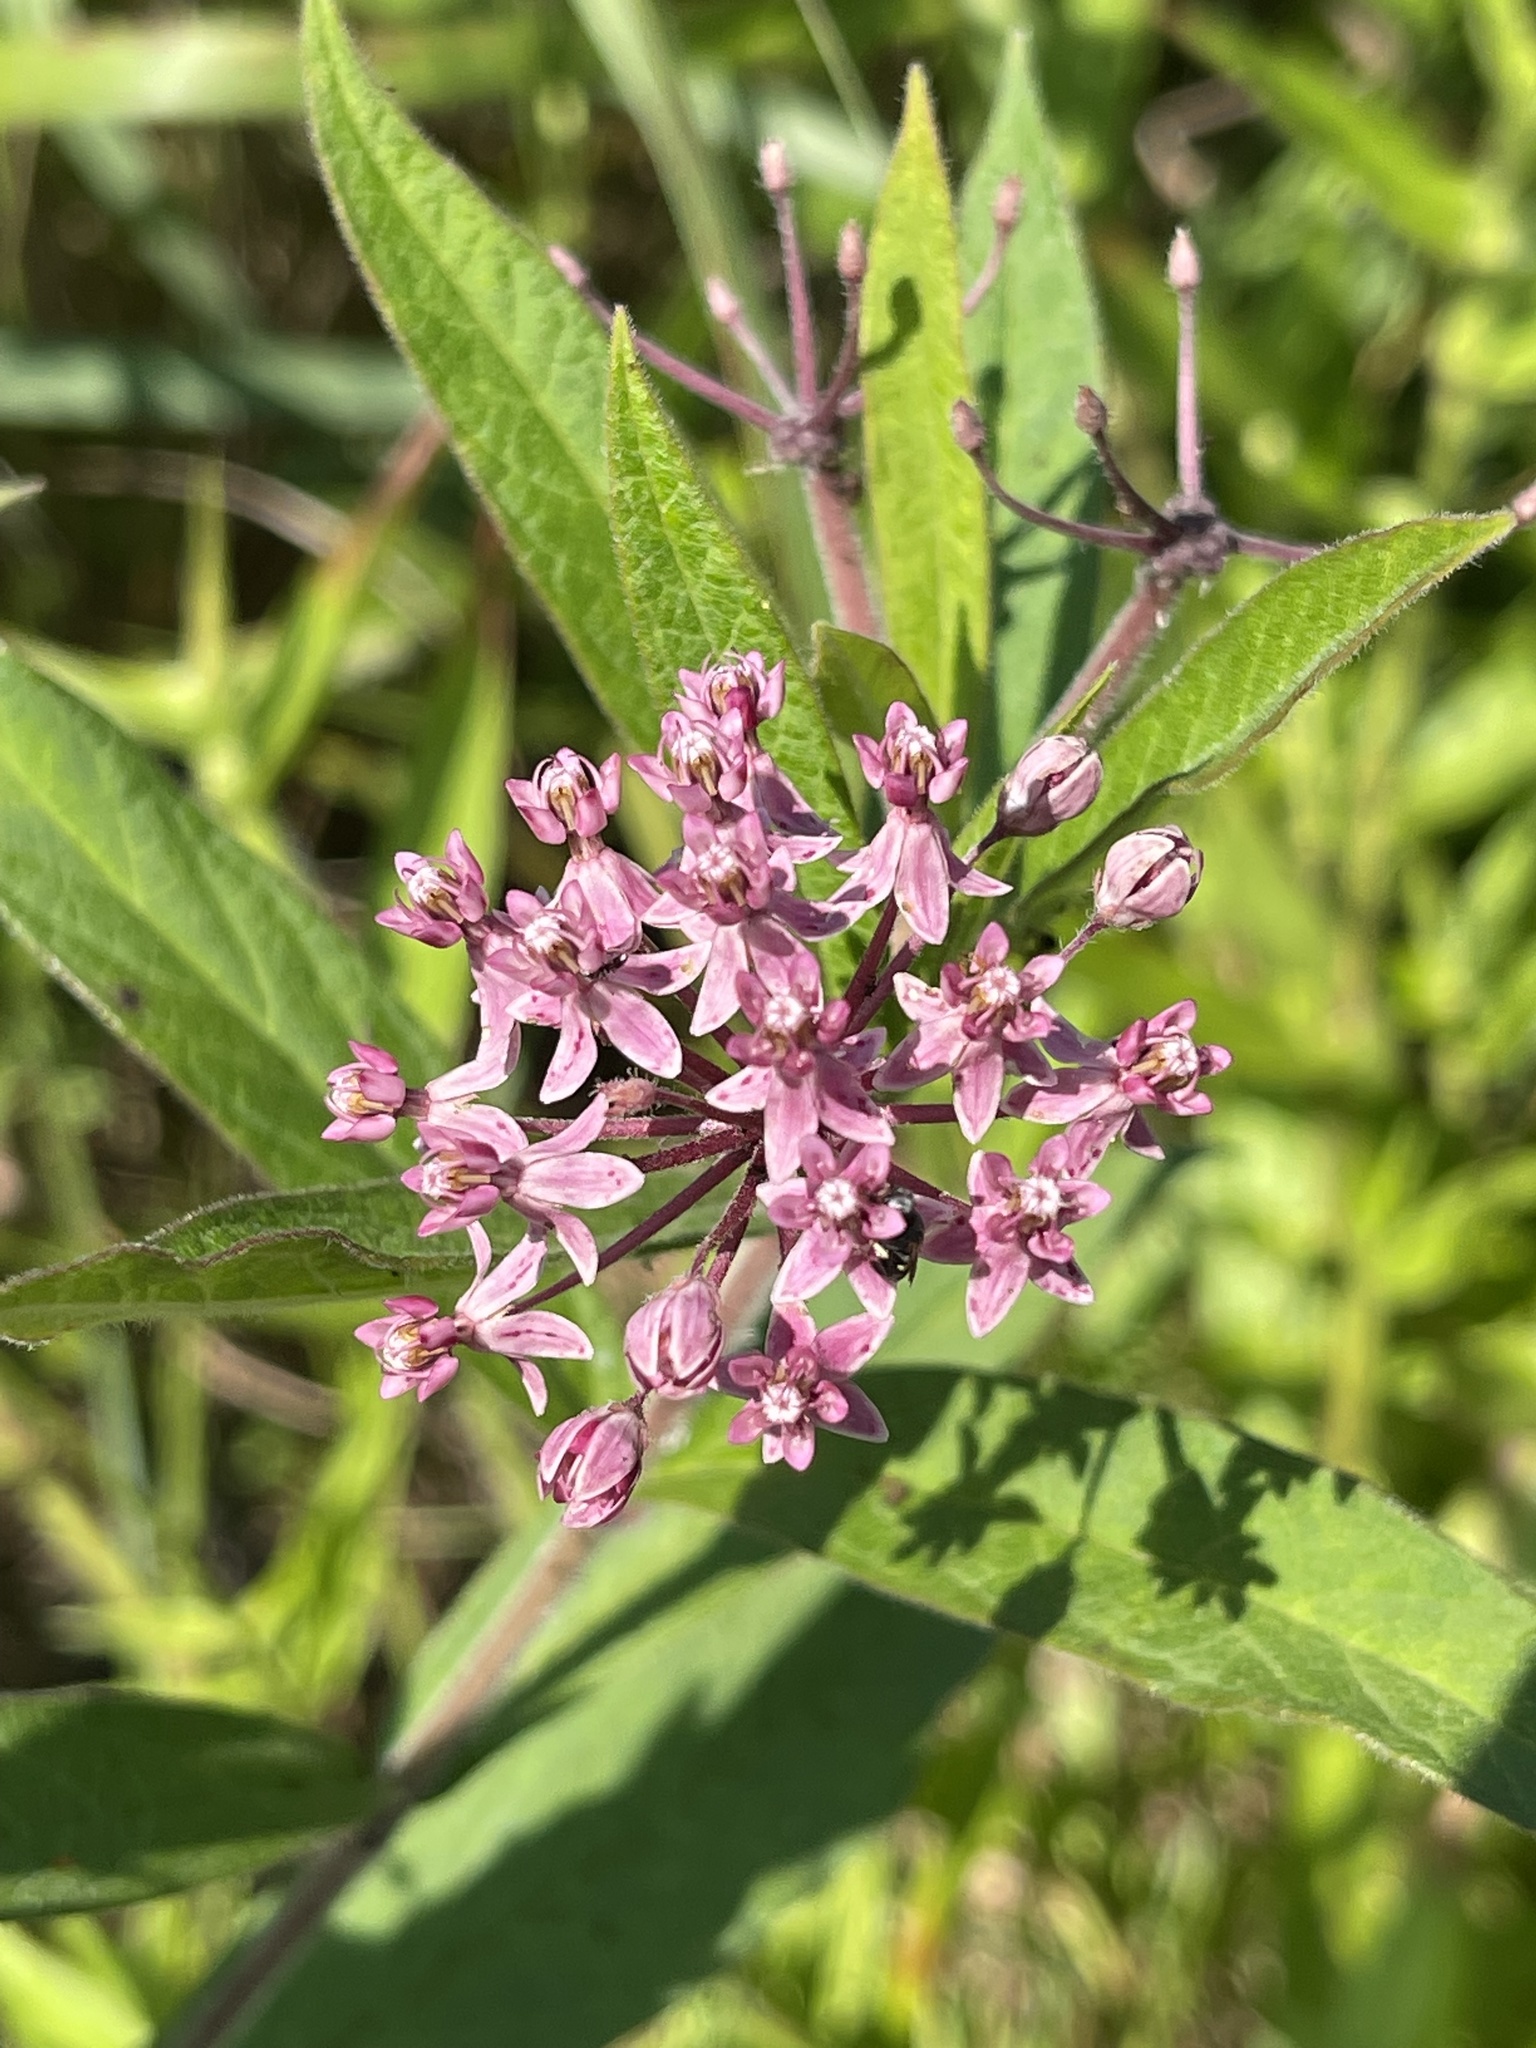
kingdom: Plantae
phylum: Tracheophyta
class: Magnoliopsida
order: Gentianales
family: Apocynaceae
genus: Asclepias
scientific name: Asclepias incarnata
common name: Swamp milkweed
